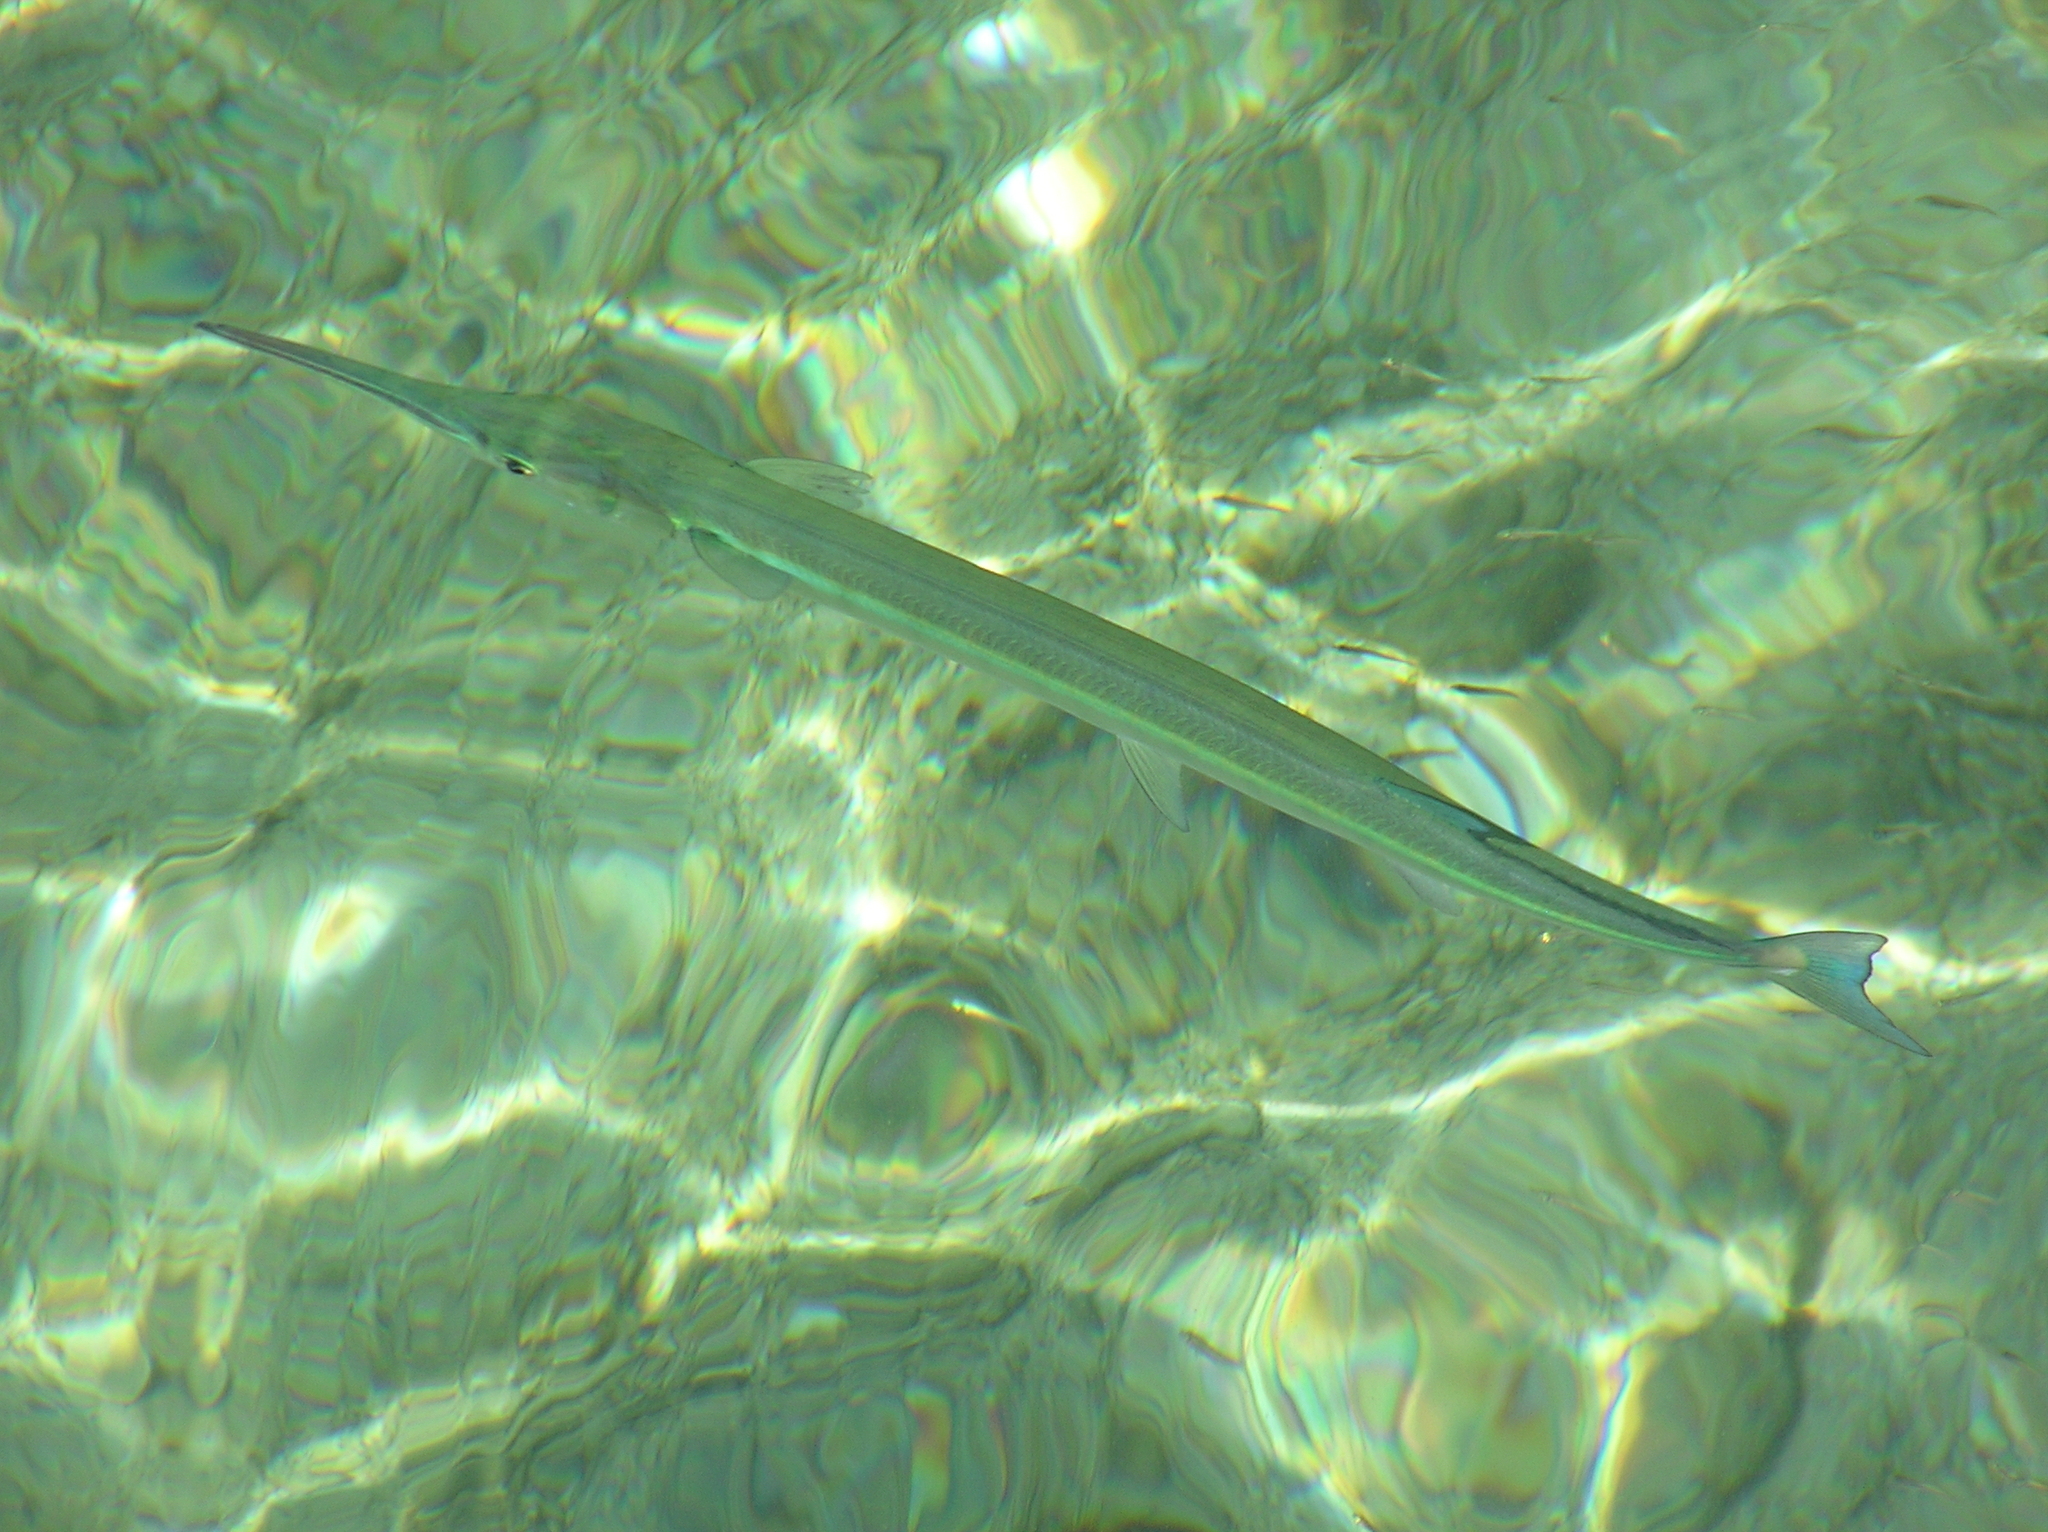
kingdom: Animalia
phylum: Chordata
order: Beloniformes
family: Belonidae
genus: Tylosurus
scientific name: Tylosurus crocodilus
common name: Houndfish
